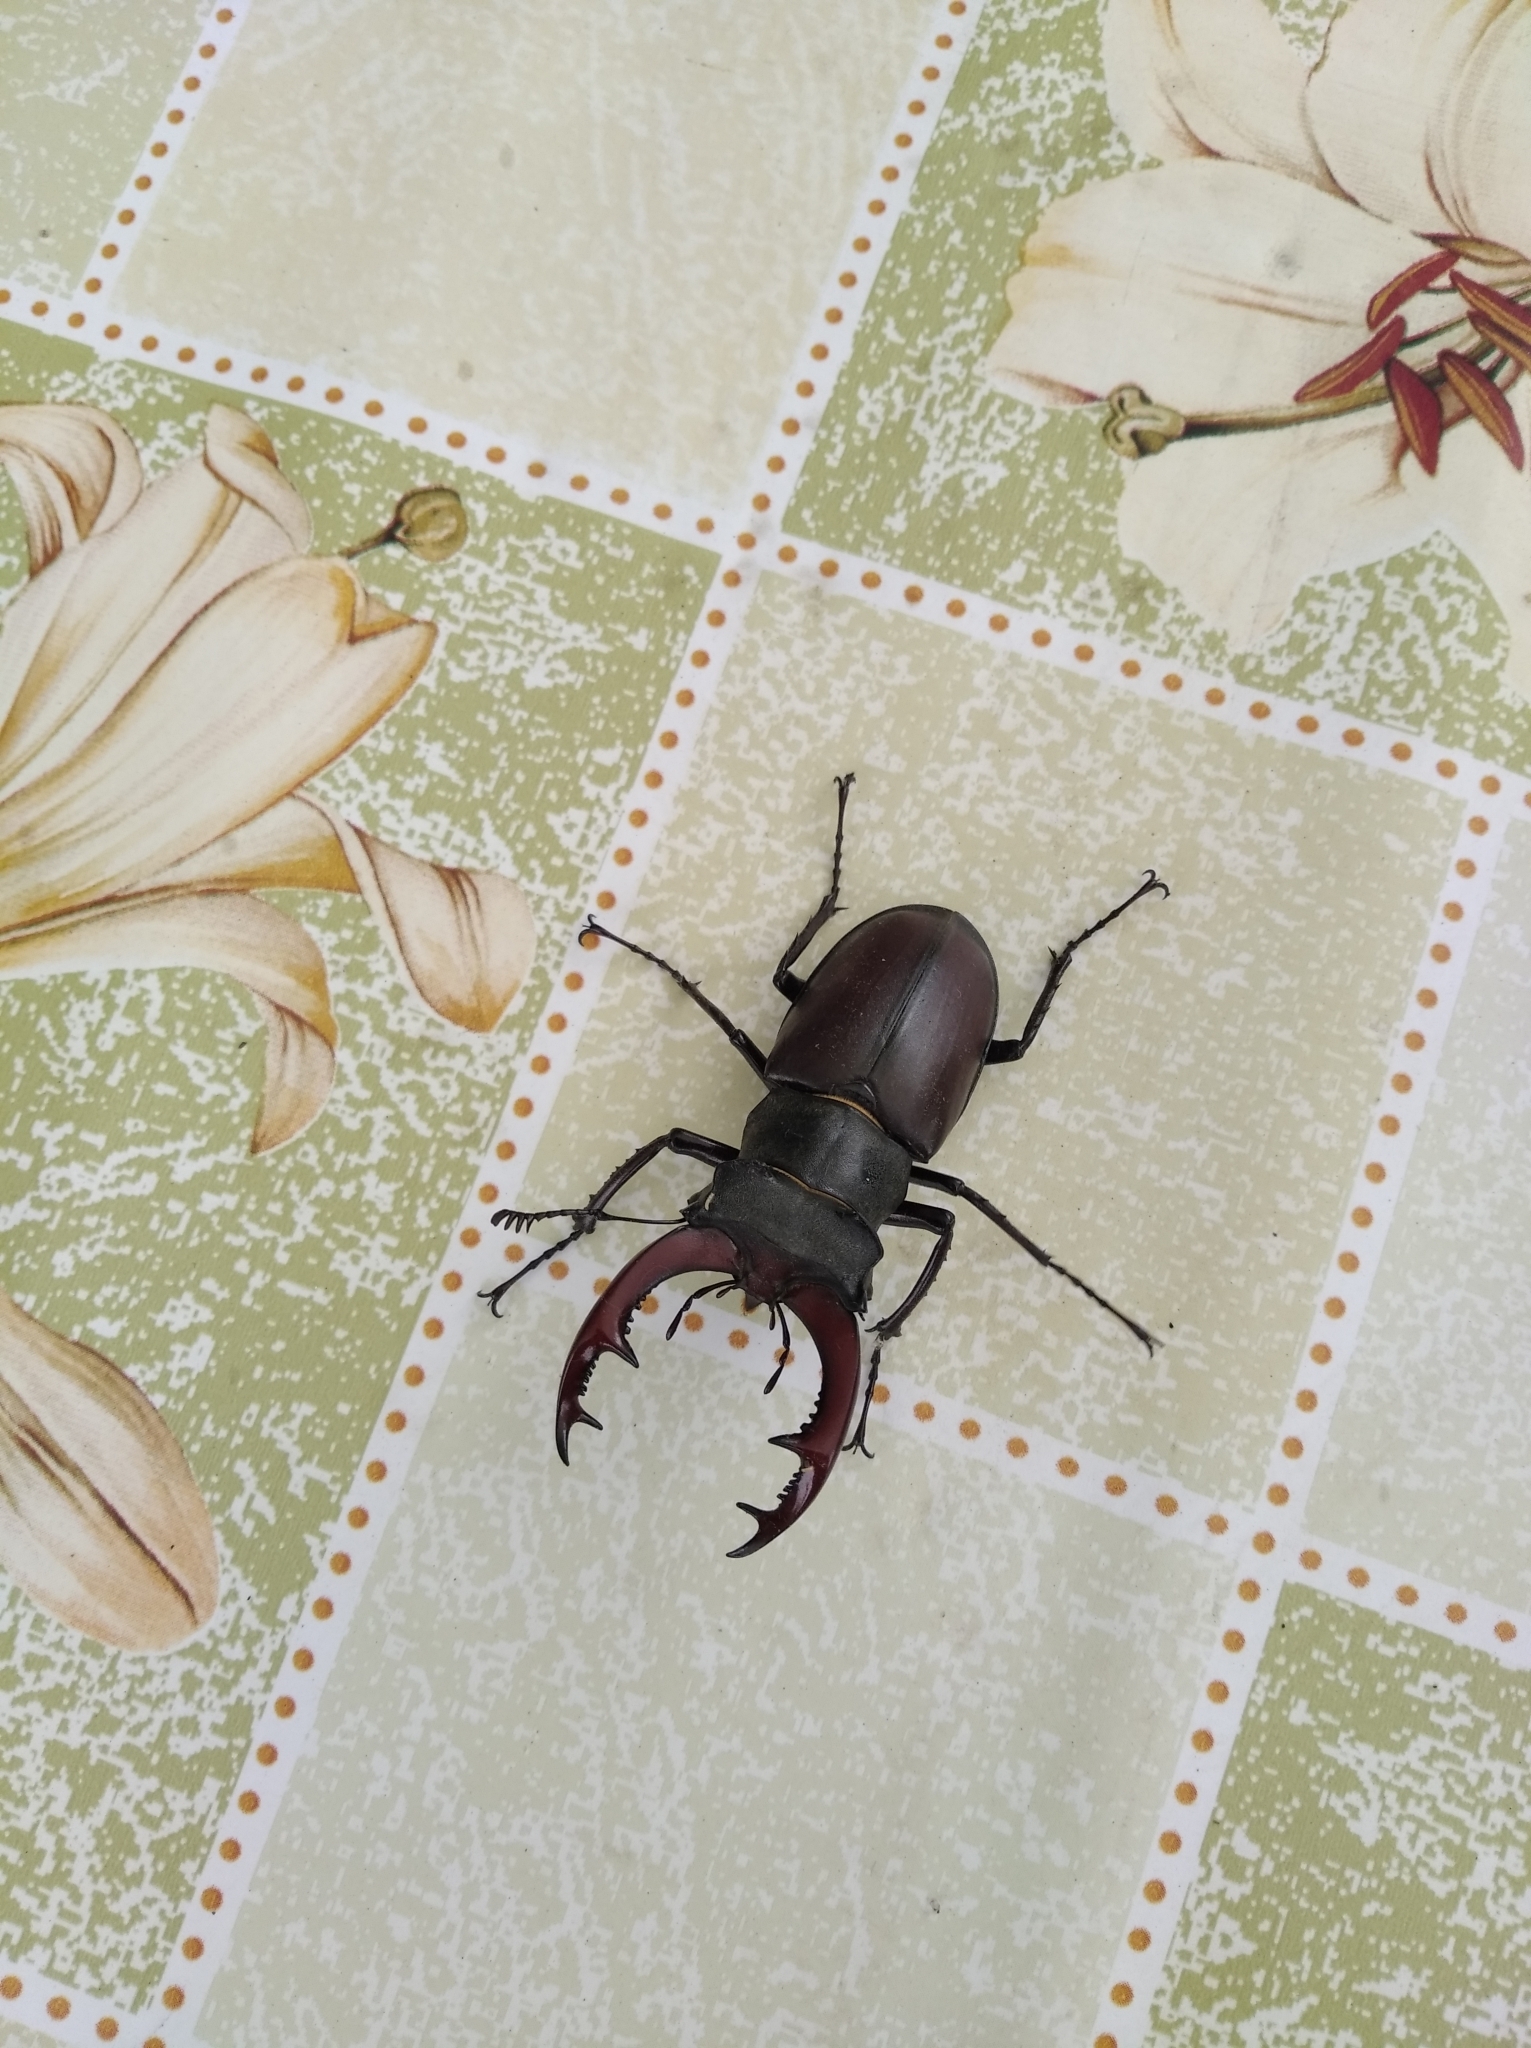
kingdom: Animalia
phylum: Arthropoda
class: Insecta
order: Coleoptera
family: Lucanidae
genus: Lucanus
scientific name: Lucanus cervus
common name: Stag beetle
